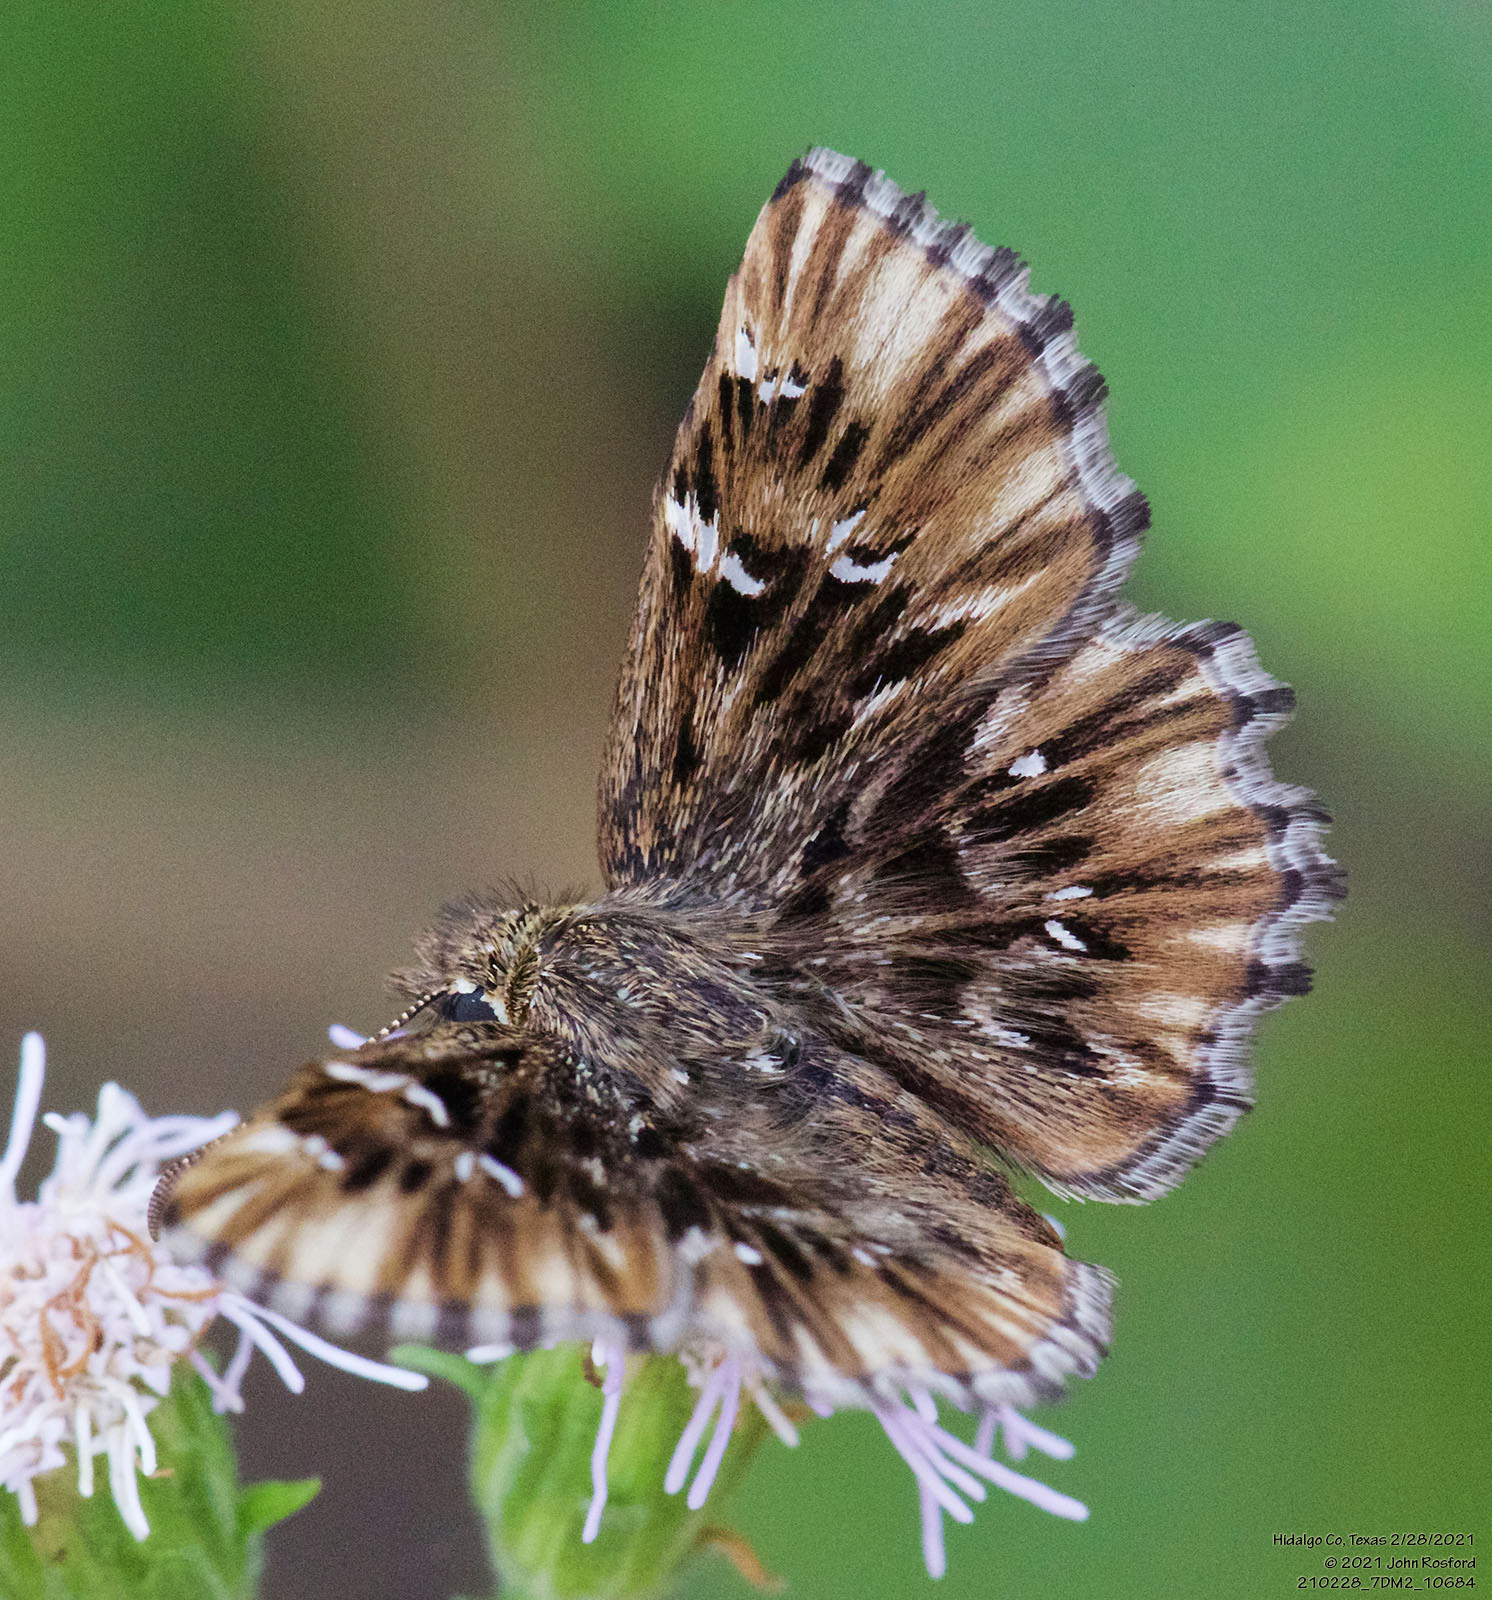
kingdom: Animalia
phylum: Arthropoda
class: Insecta
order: Lepidoptera
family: Hesperiidae
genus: Celotes
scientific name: Celotes nessus
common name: Common streaky-skipper
